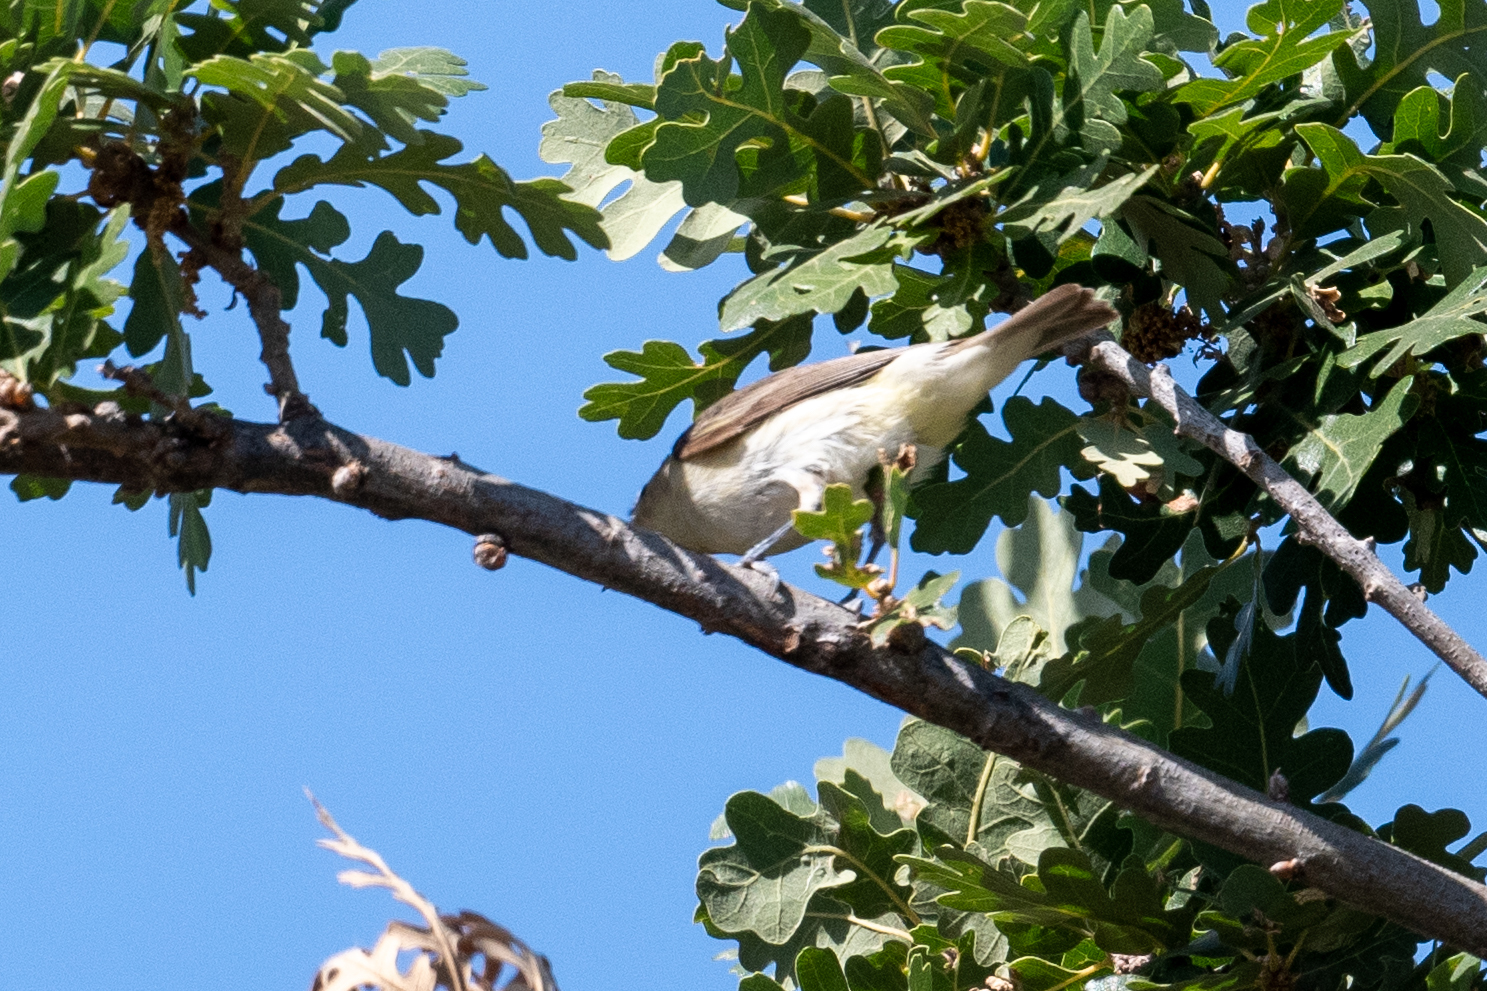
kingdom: Animalia
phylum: Chordata
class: Aves
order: Passeriformes
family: Vireonidae
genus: Vireo
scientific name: Vireo gilvus
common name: Warbling vireo
